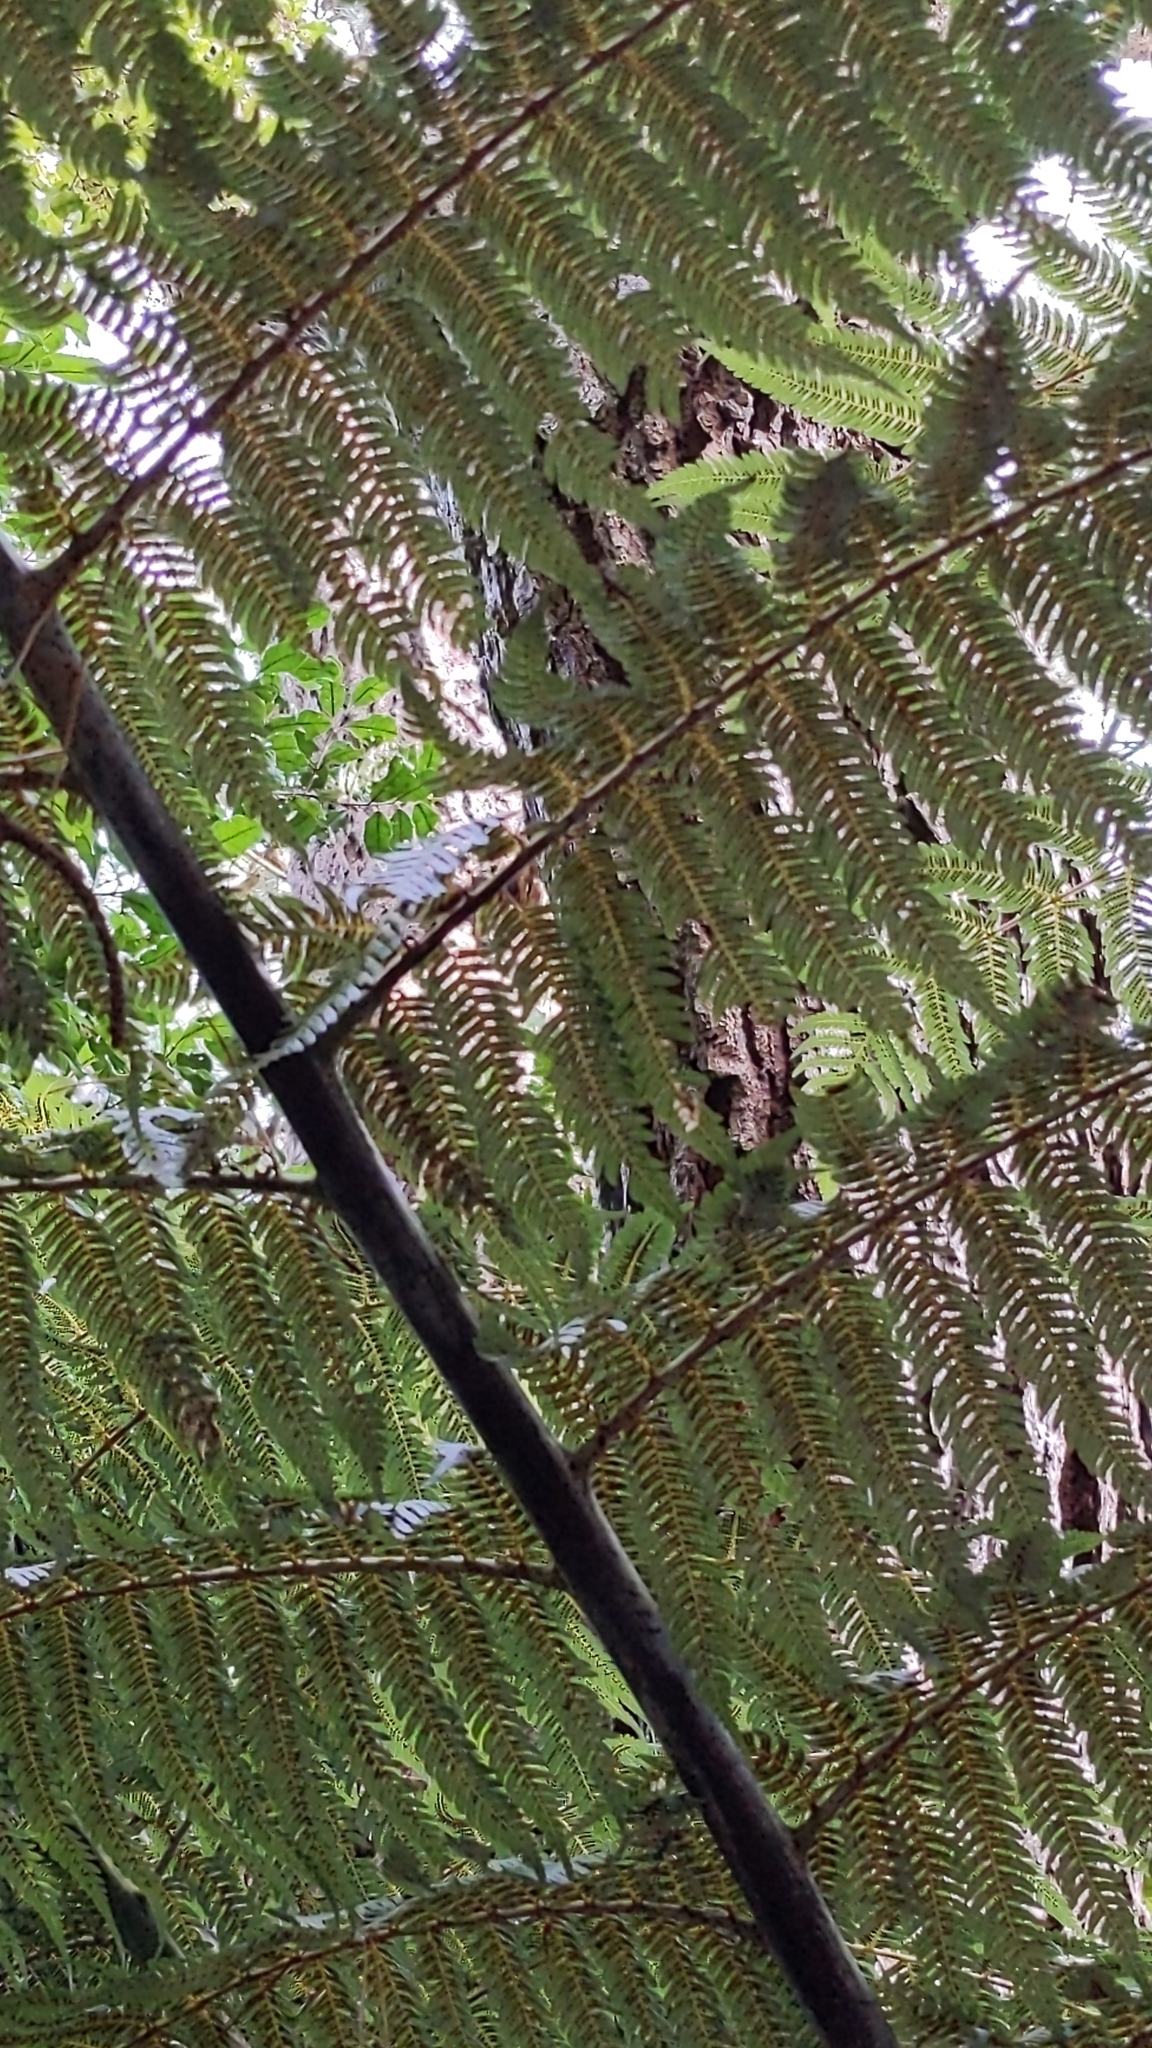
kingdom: Plantae
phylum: Tracheophyta
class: Polypodiopsida
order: Cyatheales
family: Cyatheaceae
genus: Alsophila
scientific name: Alsophila dealbata
